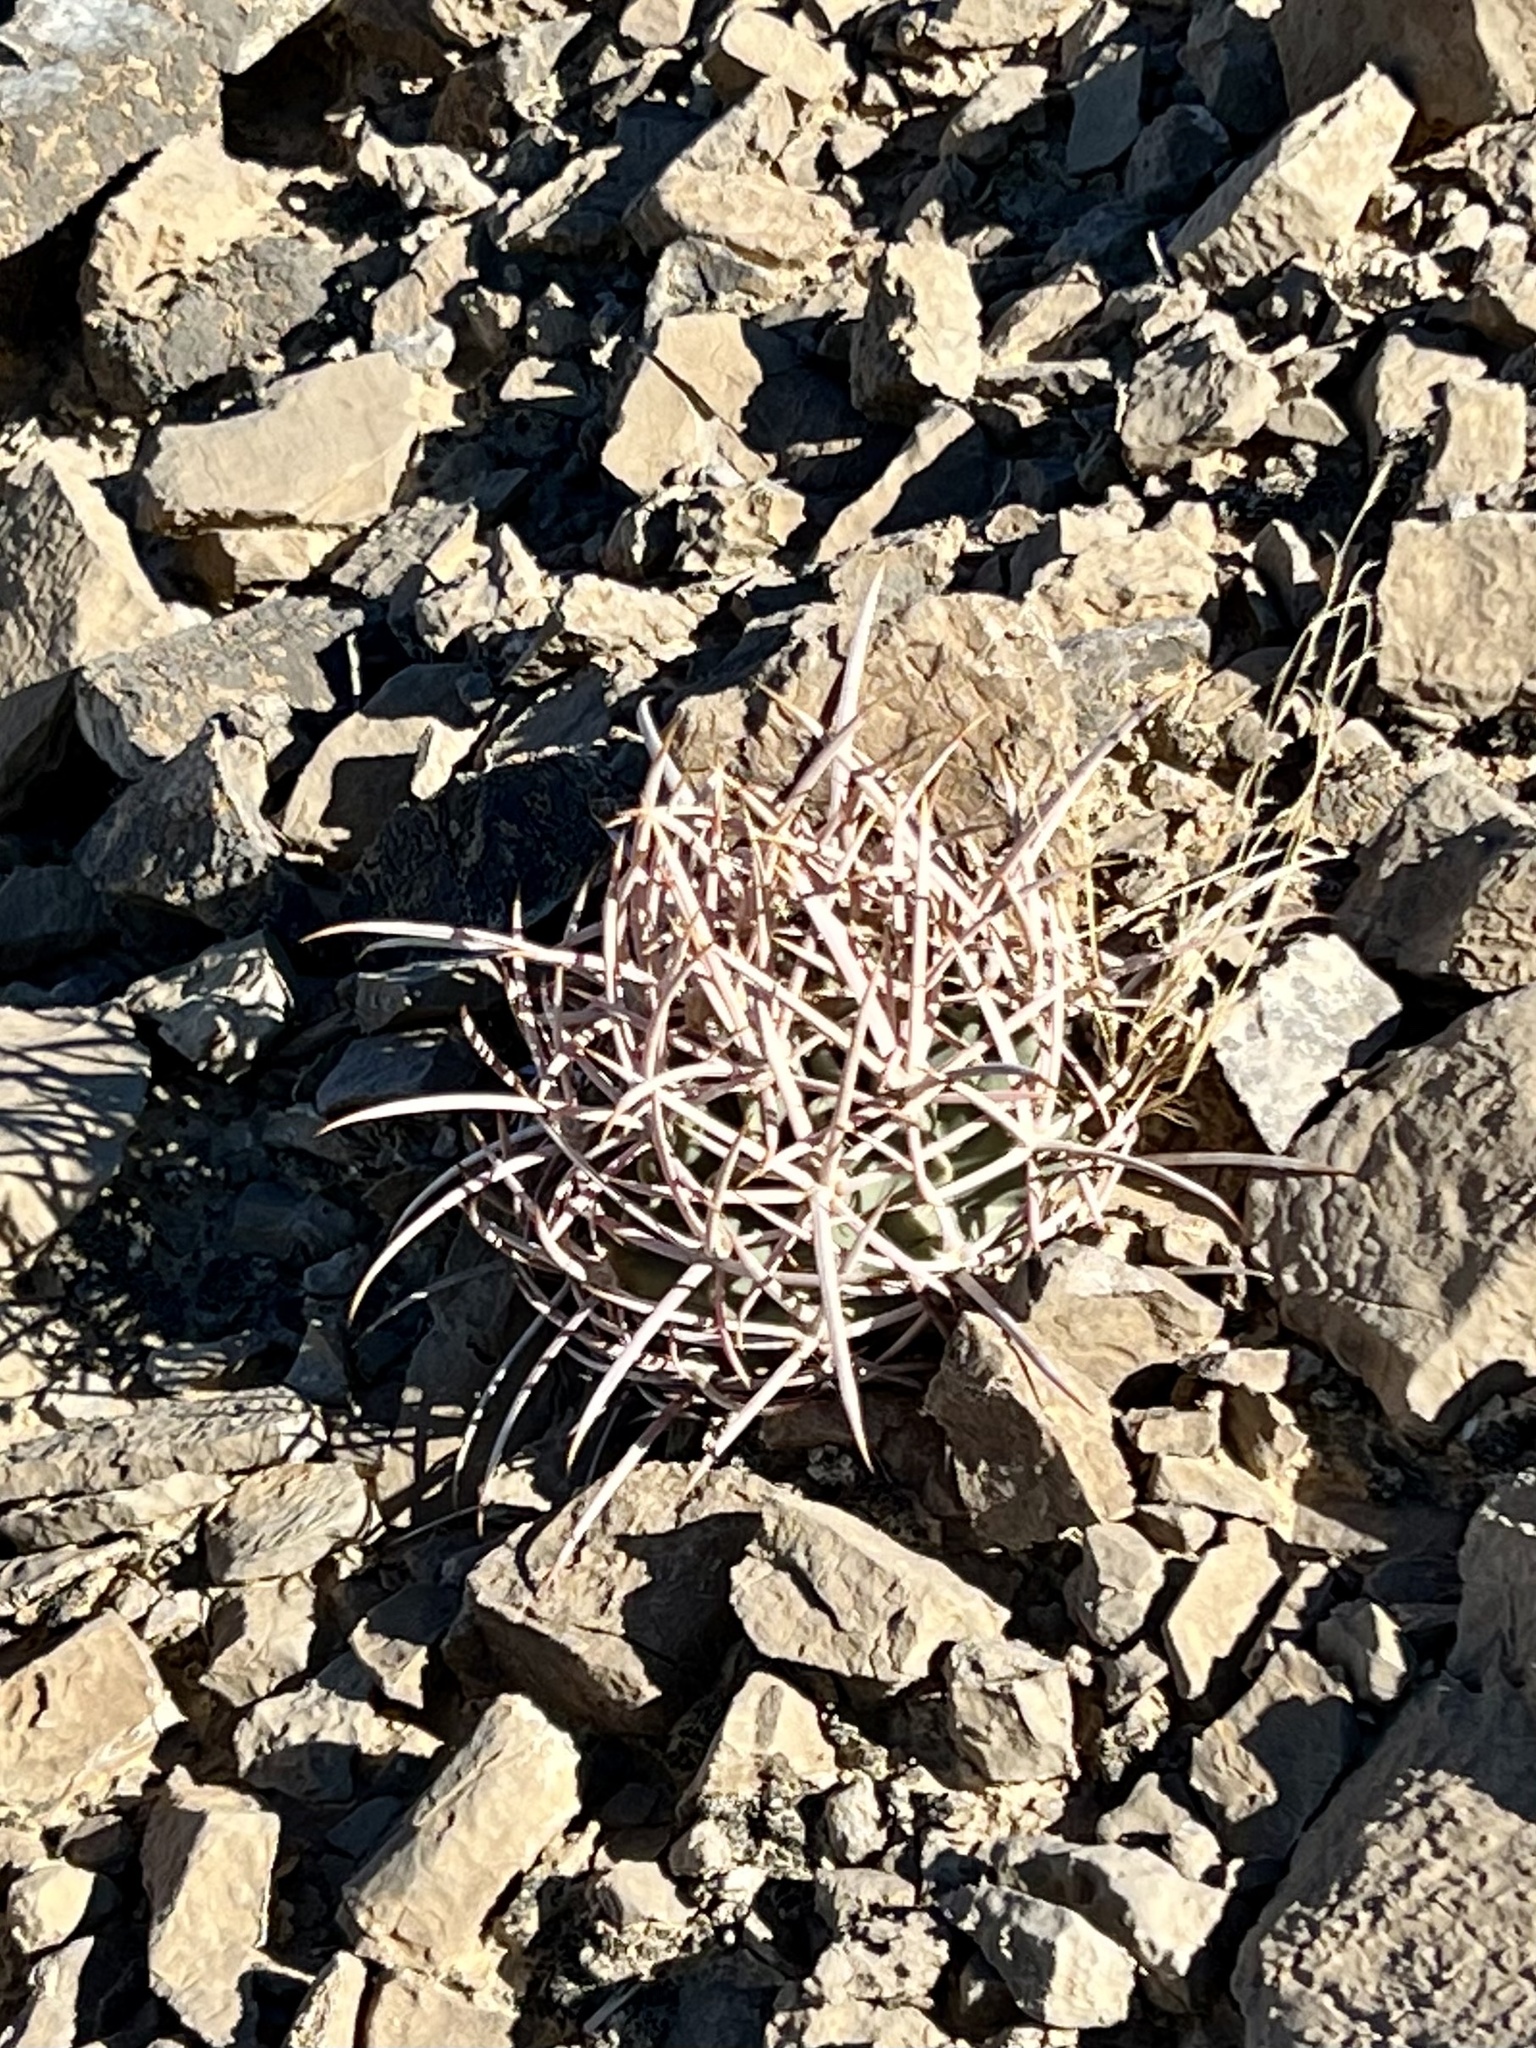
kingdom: Plantae
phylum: Tracheophyta
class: Magnoliopsida
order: Caryophyllales
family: Cactaceae
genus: Echinocactus
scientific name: Echinocactus polycephalus
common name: Cottontop cactus
